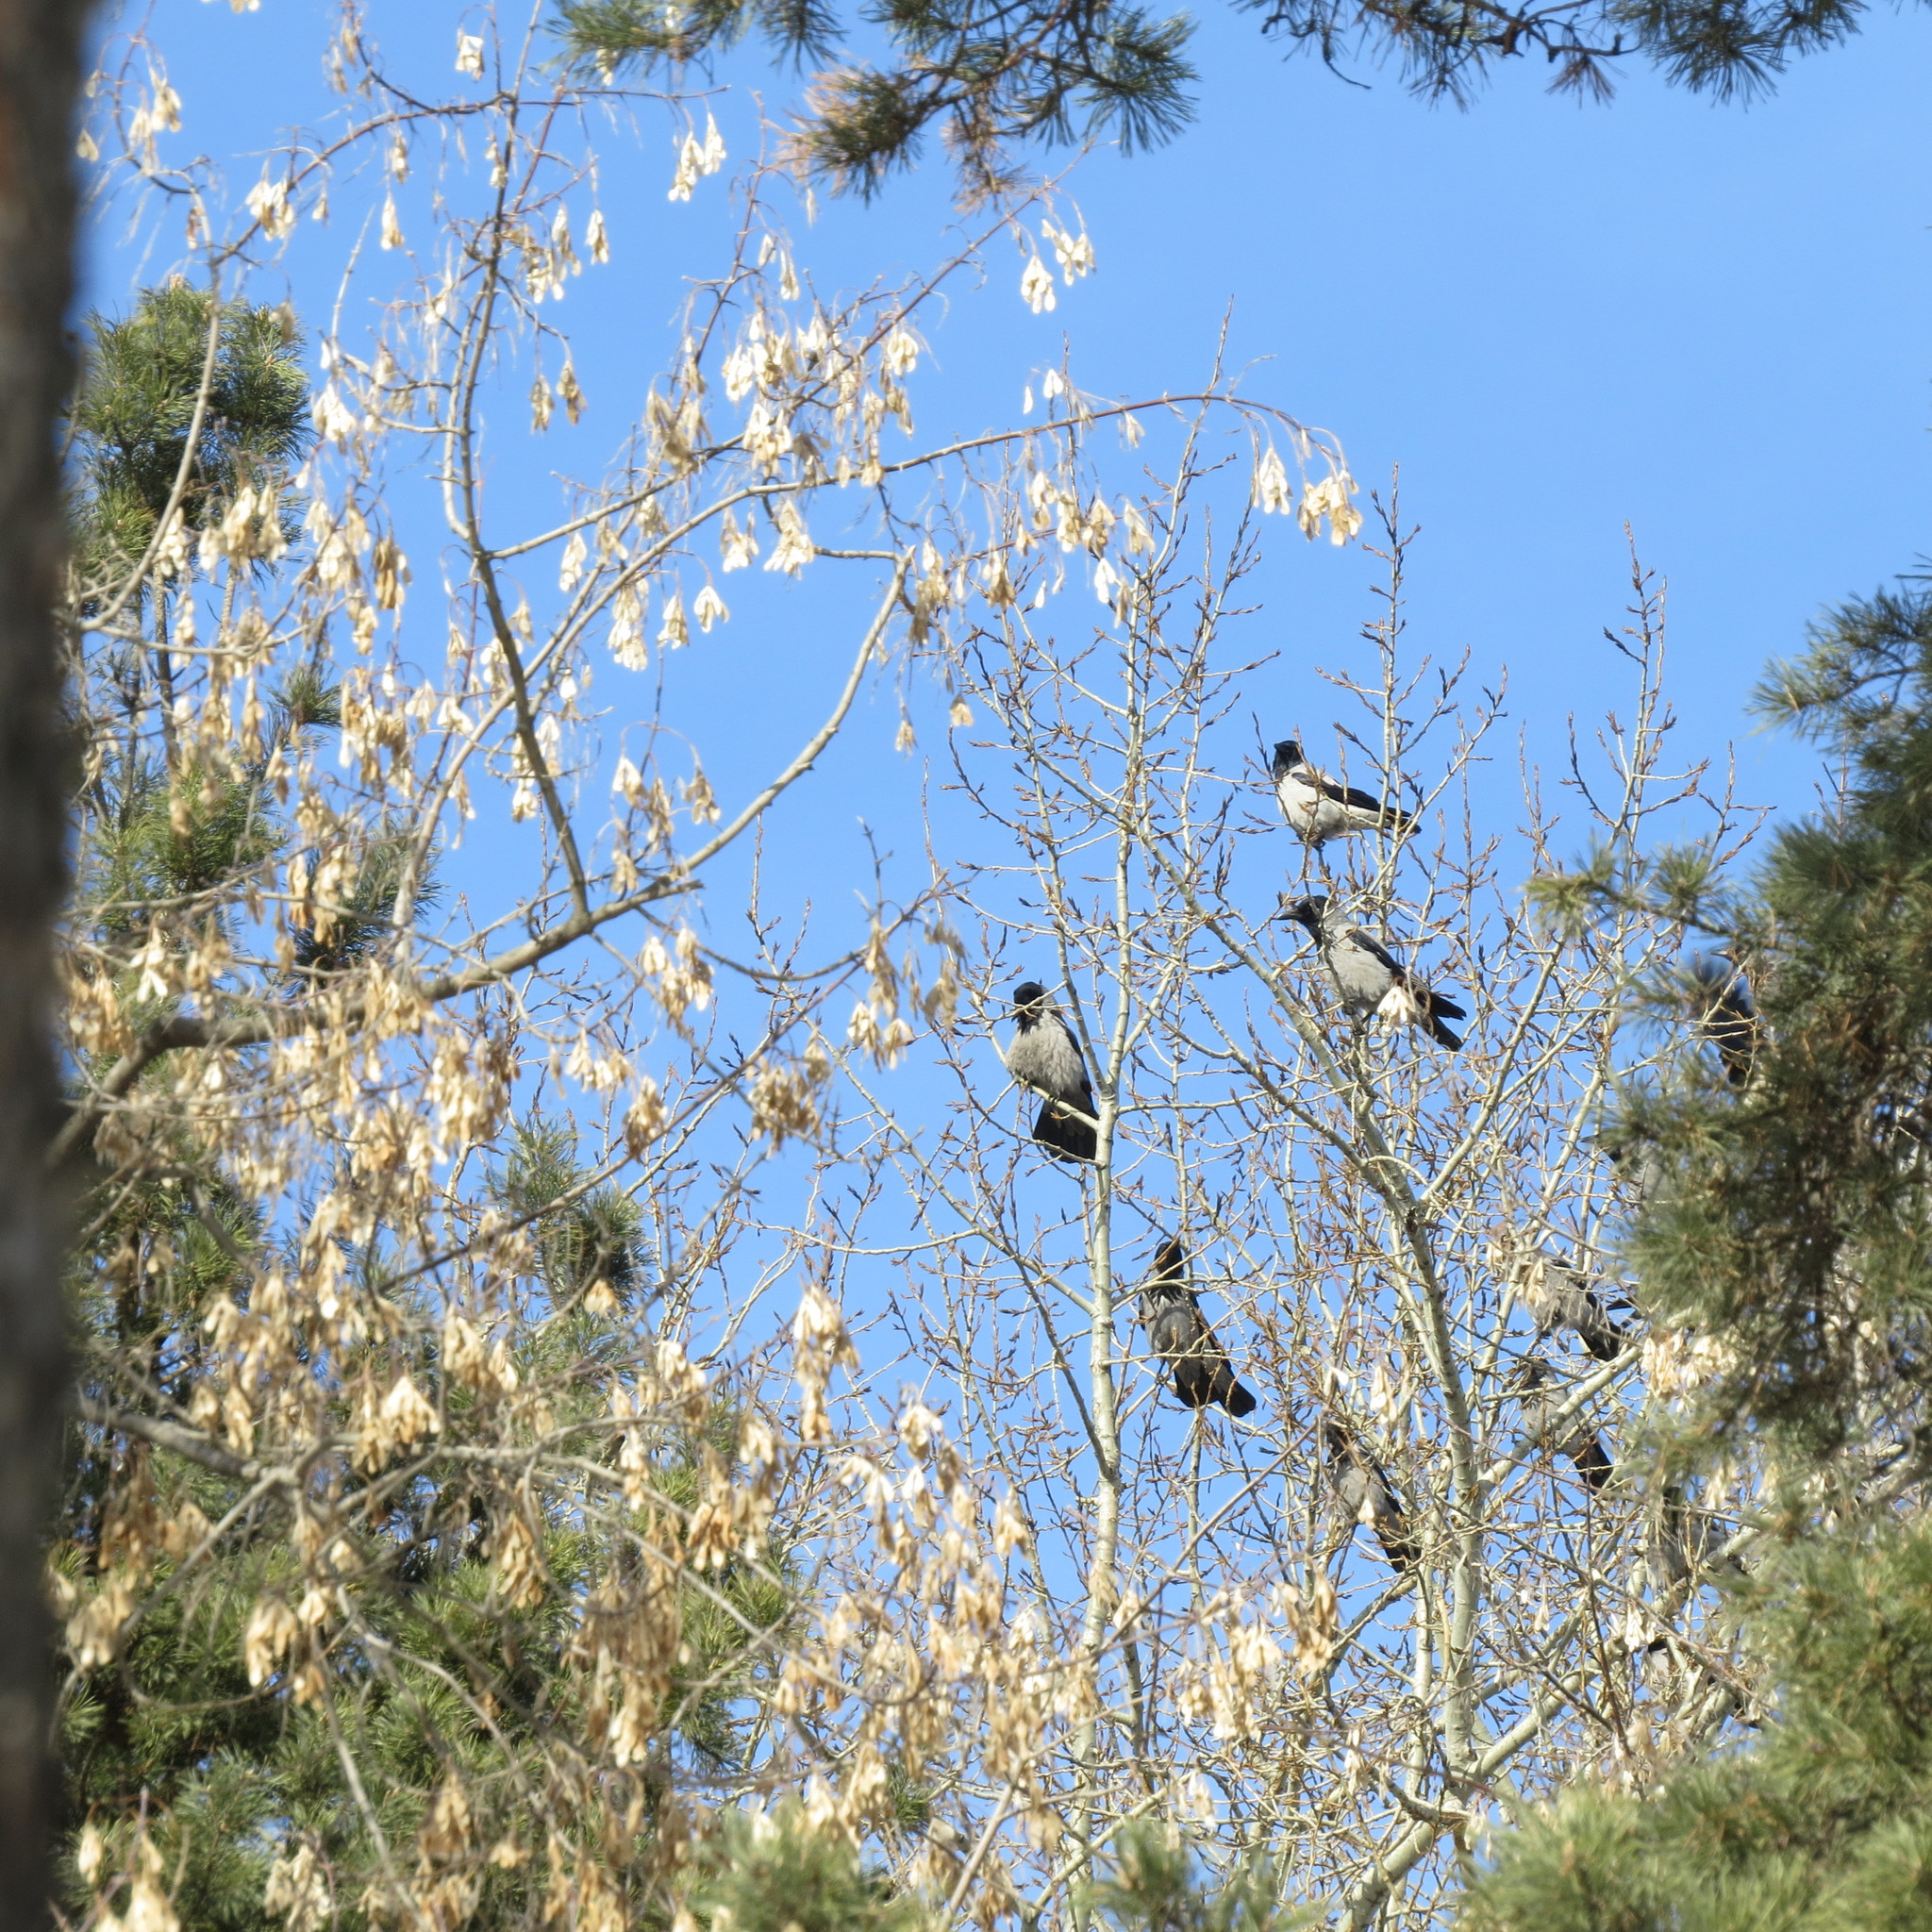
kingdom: Animalia
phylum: Chordata
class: Aves
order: Passeriformes
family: Corvidae
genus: Corvus
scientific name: Corvus cornix
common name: Hooded crow
